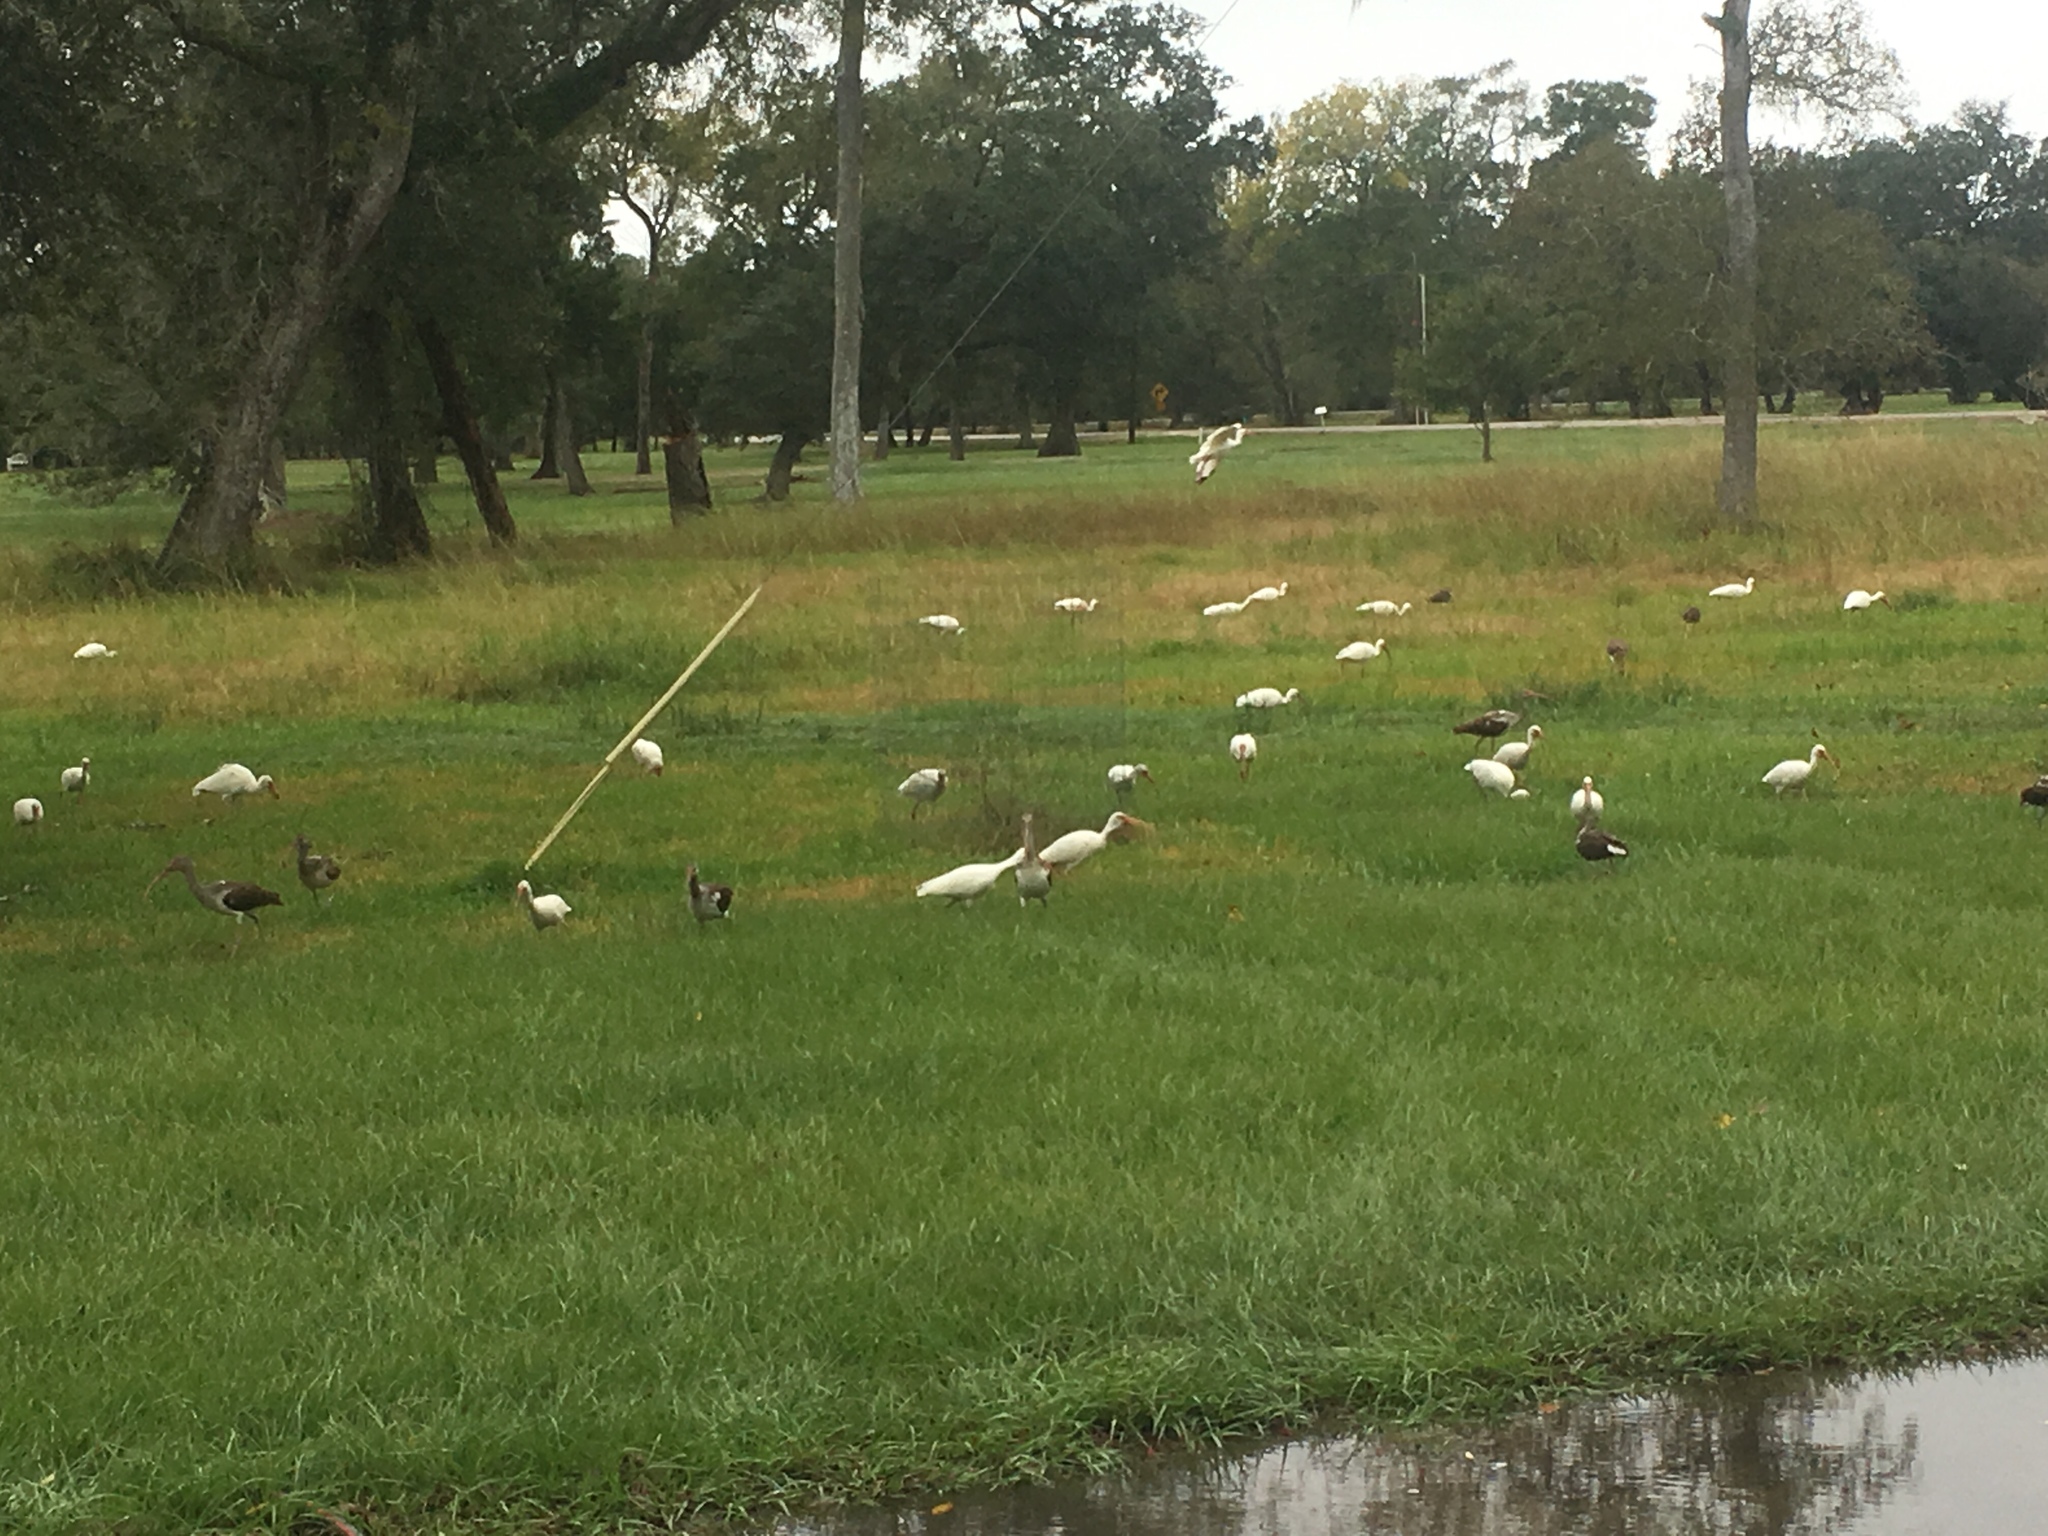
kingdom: Animalia
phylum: Chordata
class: Aves
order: Pelecaniformes
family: Threskiornithidae
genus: Eudocimus
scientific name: Eudocimus albus
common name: White ibis
